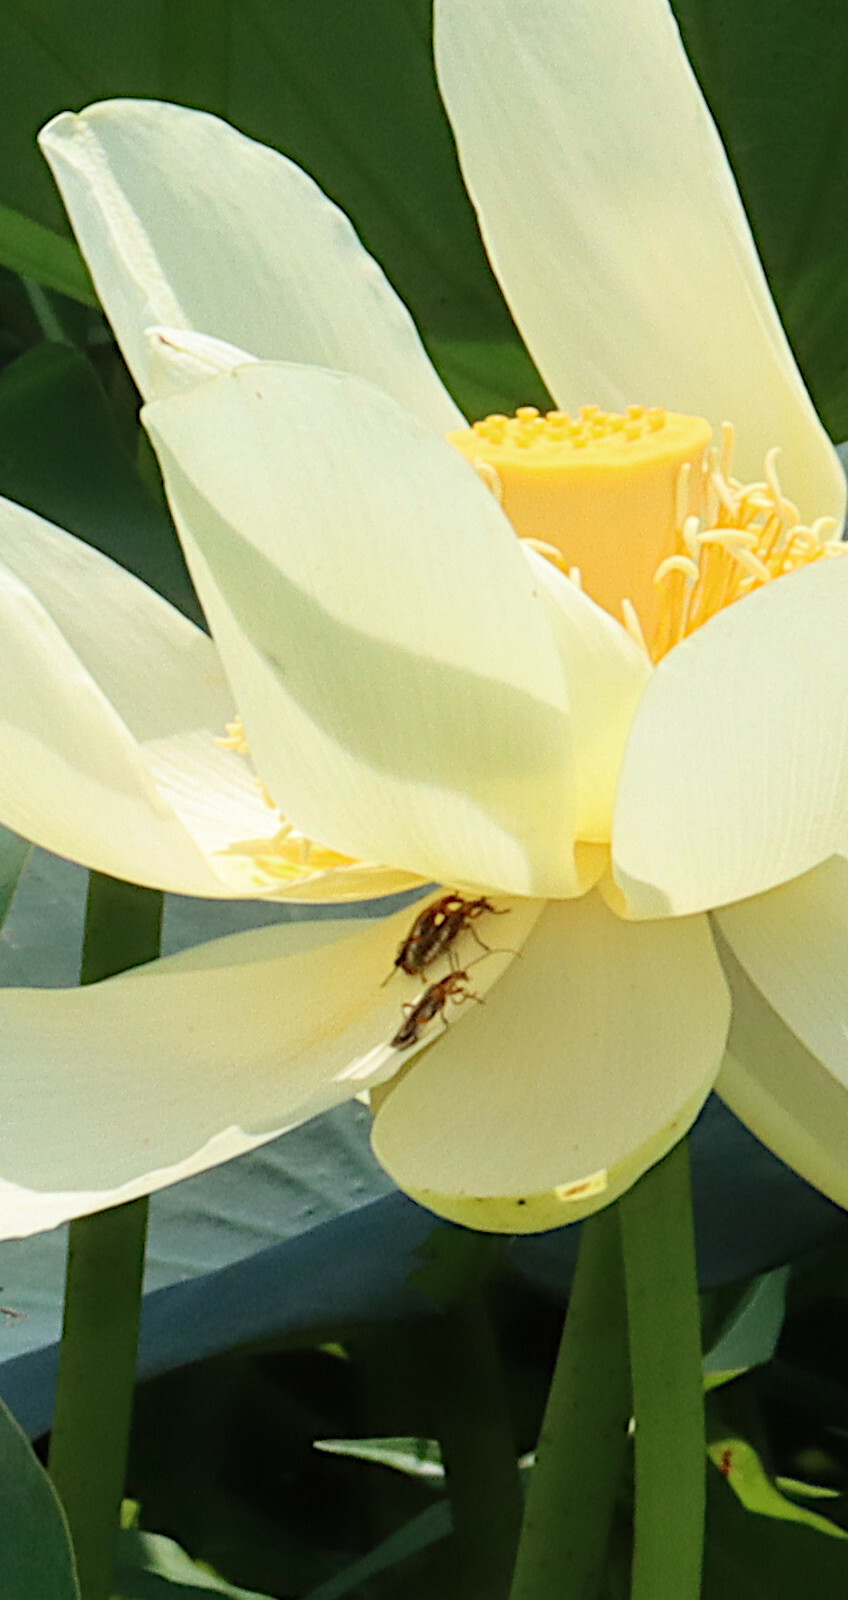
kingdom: Animalia
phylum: Arthropoda
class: Insecta
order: Coleoptera
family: Cantharidae
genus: Chauliognathus
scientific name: Chauliognathus marginatus
